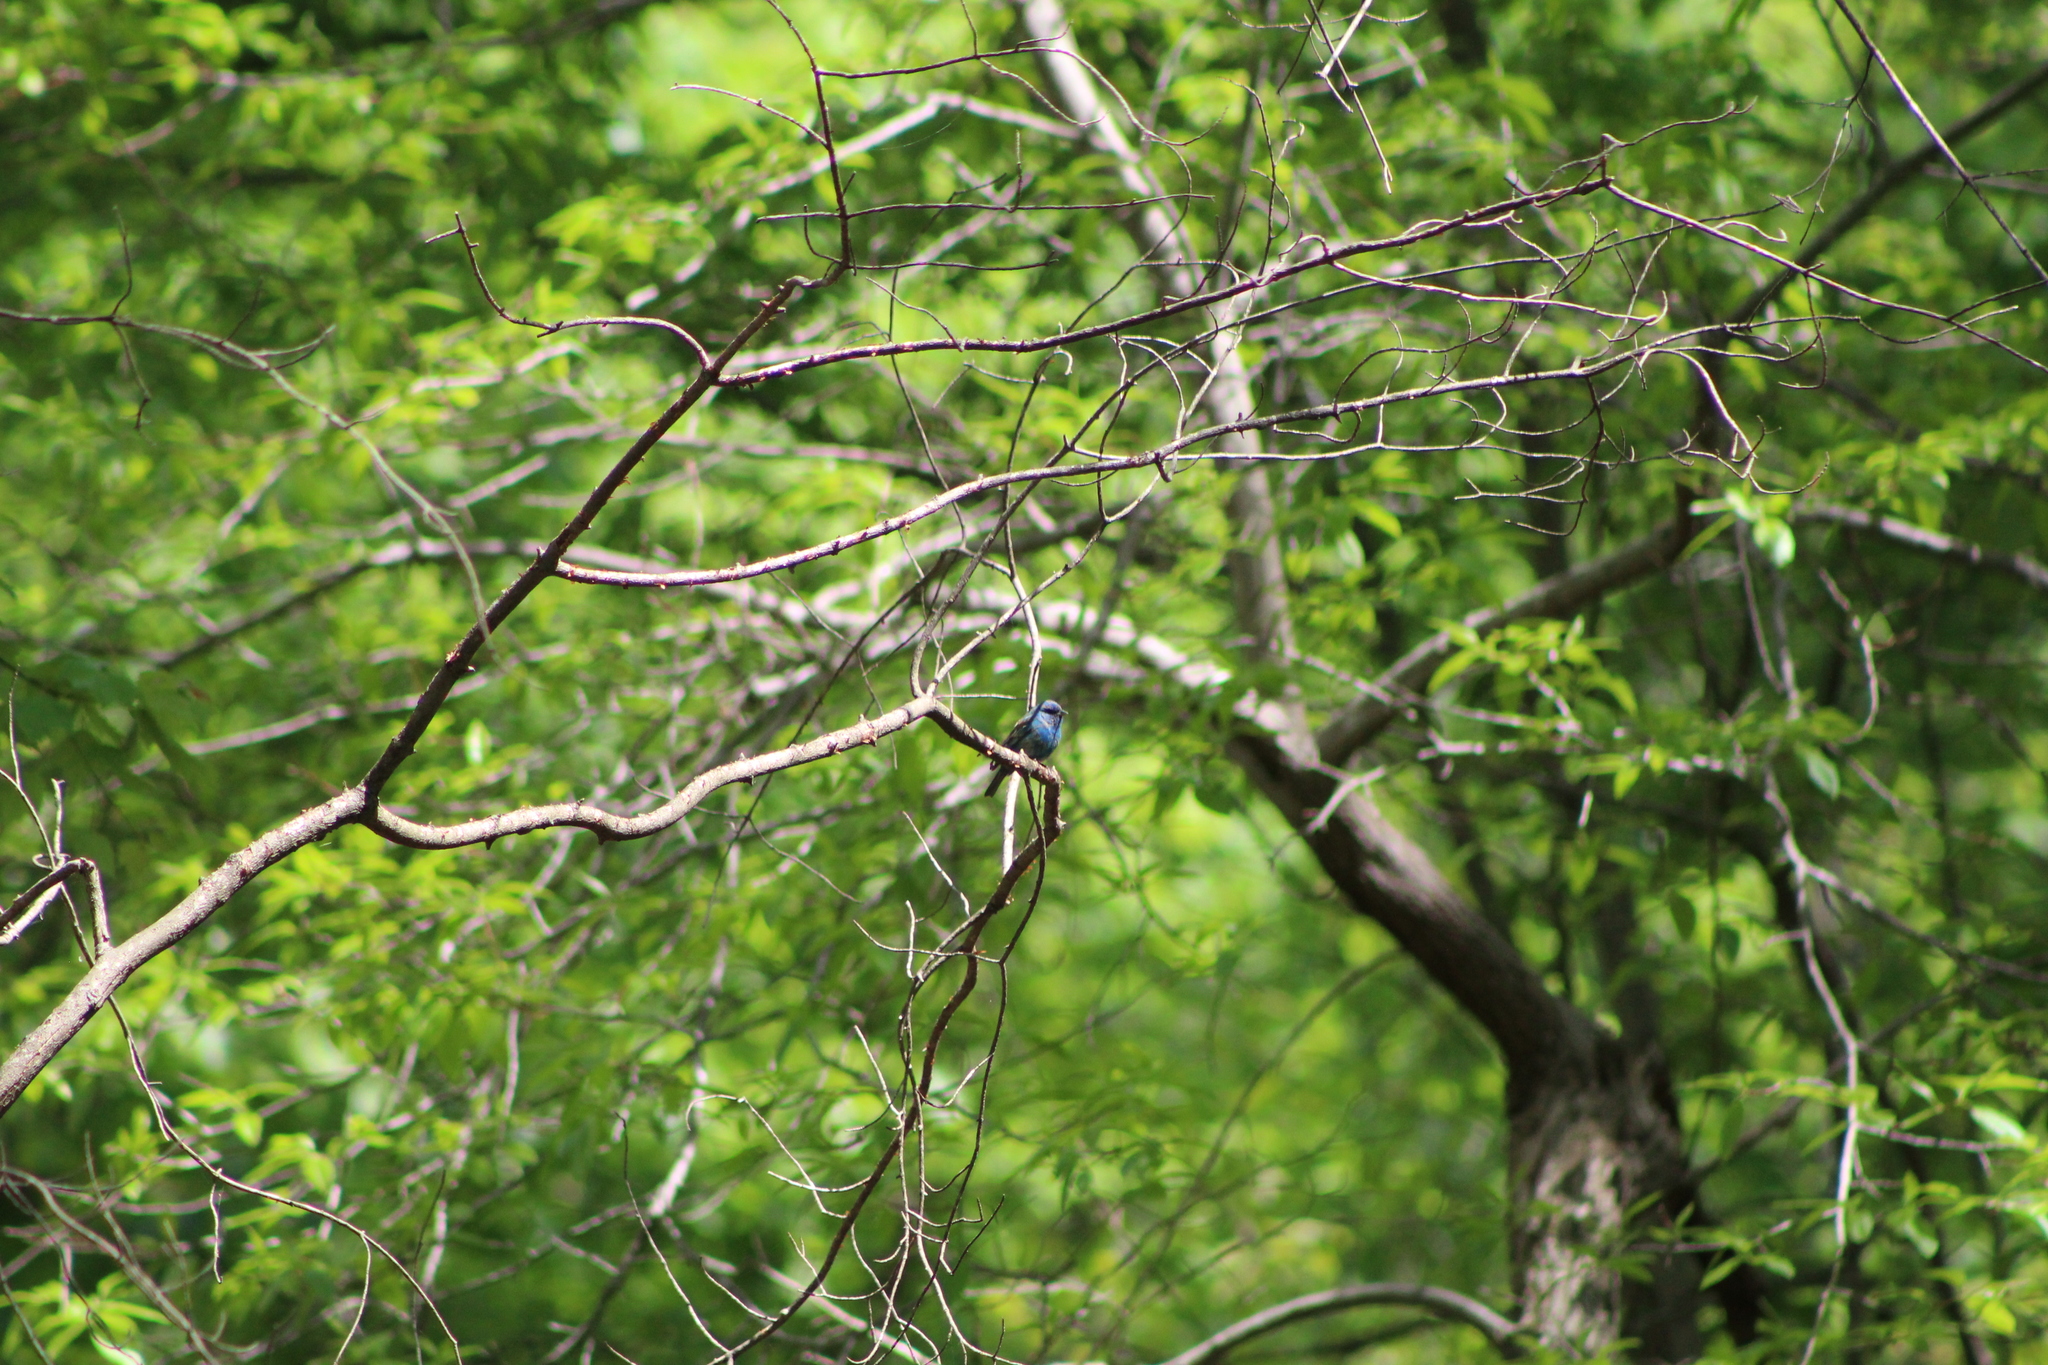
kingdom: Animalia
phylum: Chordata
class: Aves
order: Passeriformes
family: Cardinalidae
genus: Passerina
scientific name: Passerina cyanea
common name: Indigo bunting
